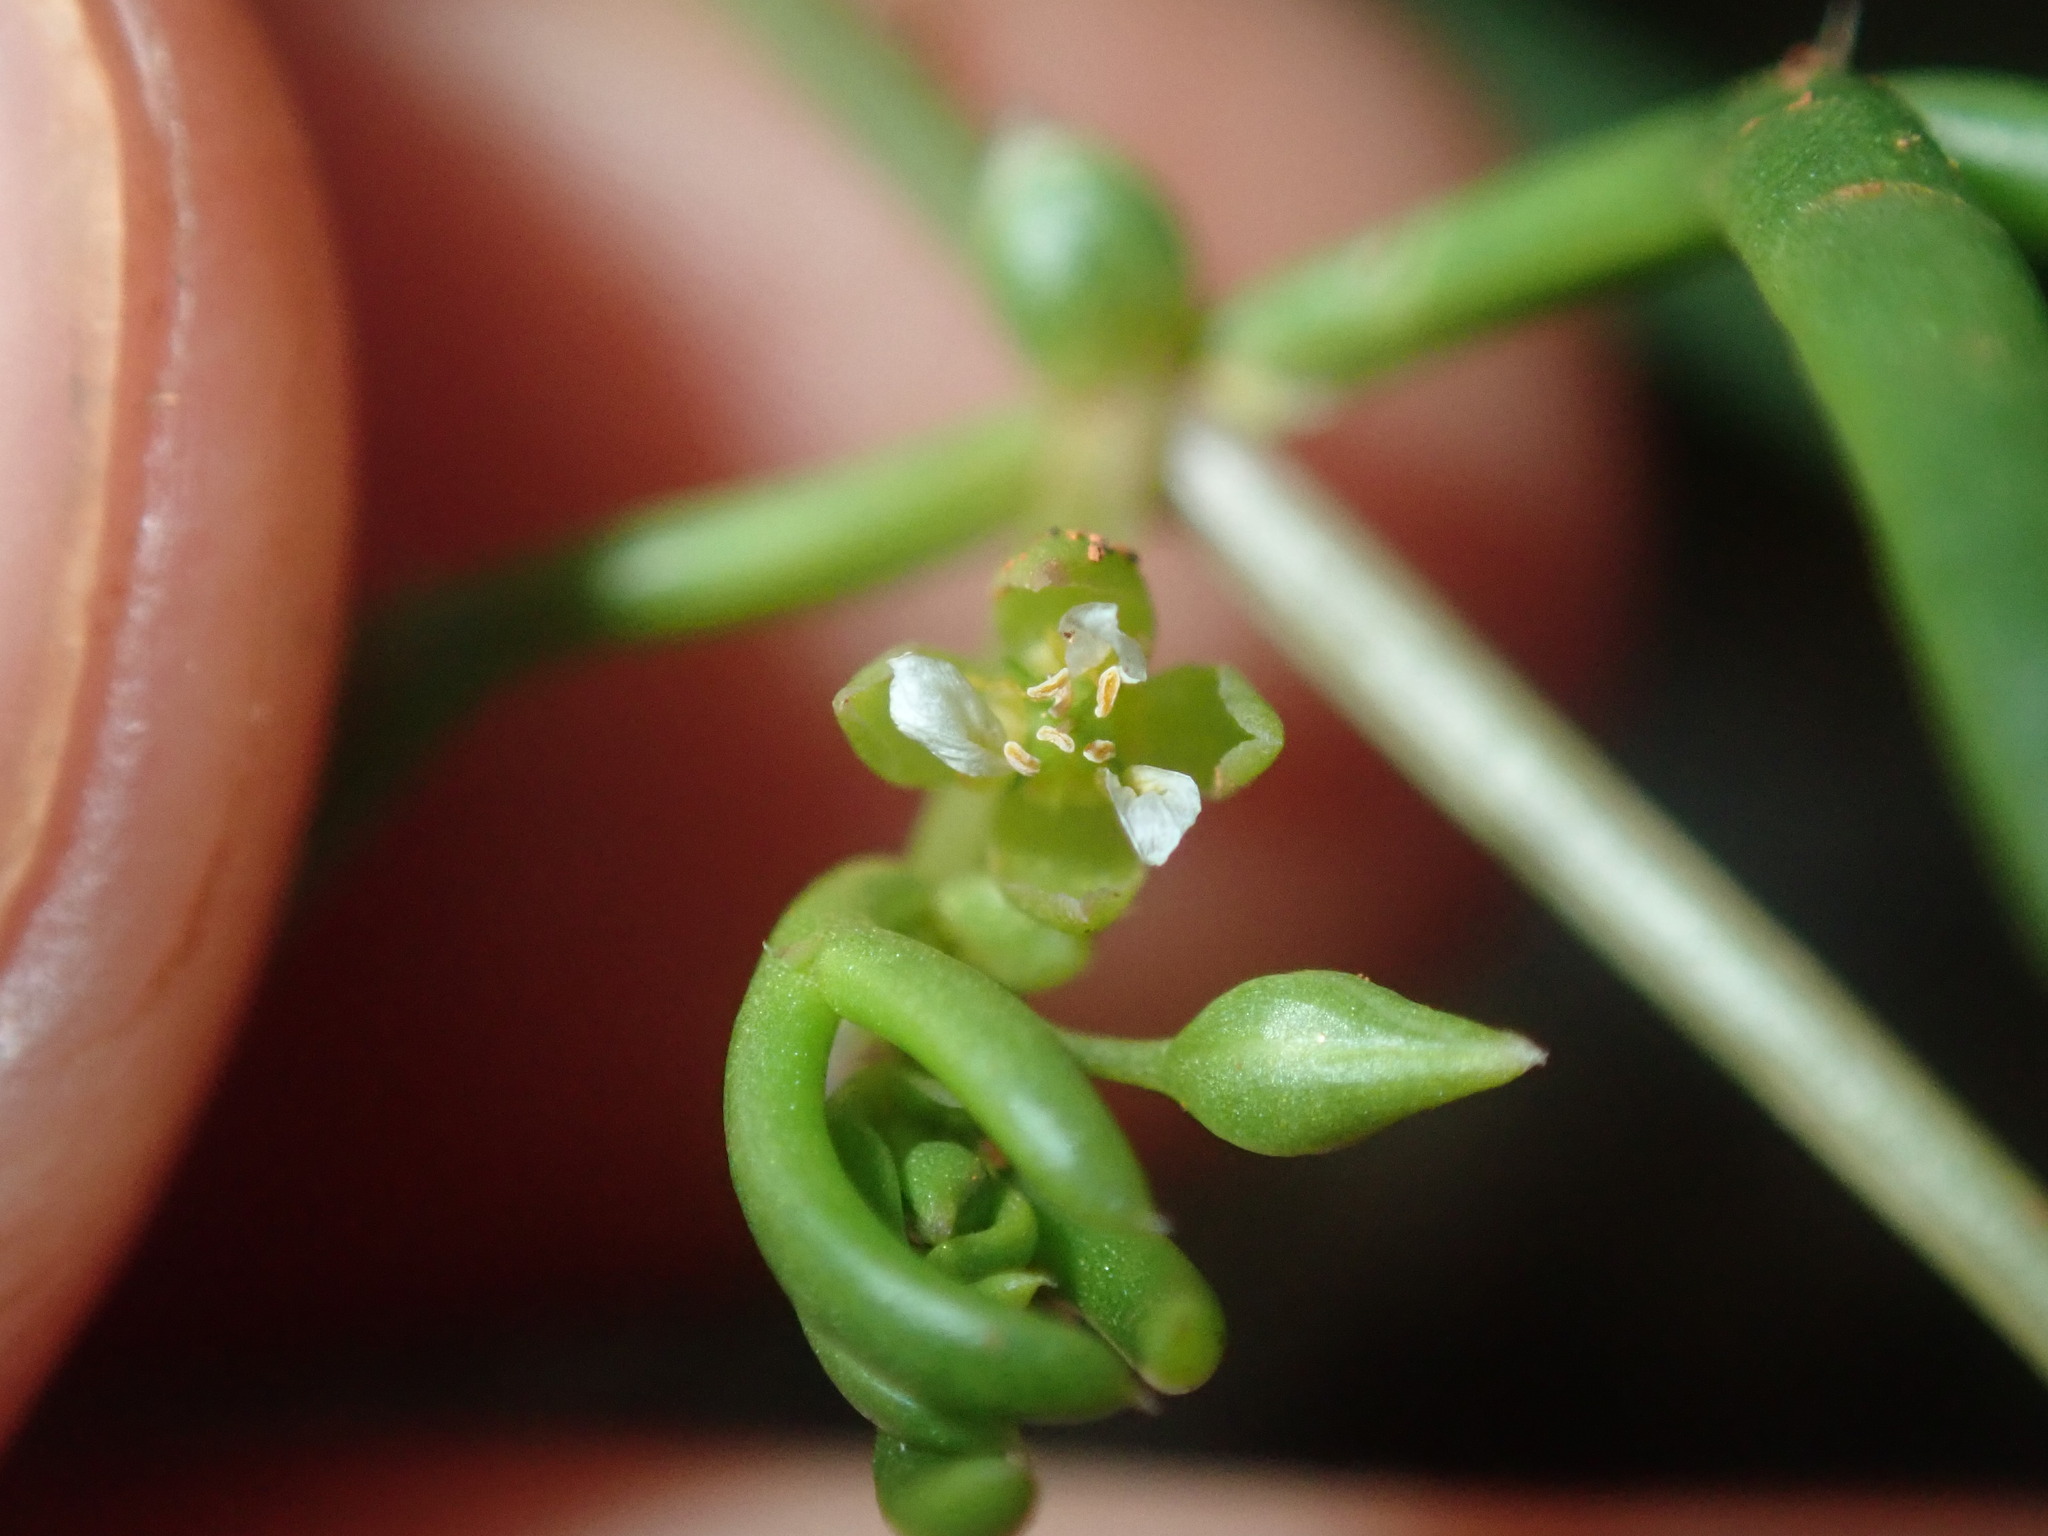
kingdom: Plantae
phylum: Tracheophyta
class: Magnoliopsida
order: Zygophyllales
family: Zygophyllaceae
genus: Roepera
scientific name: Roepera eremaea
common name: Climbing twinleaf
